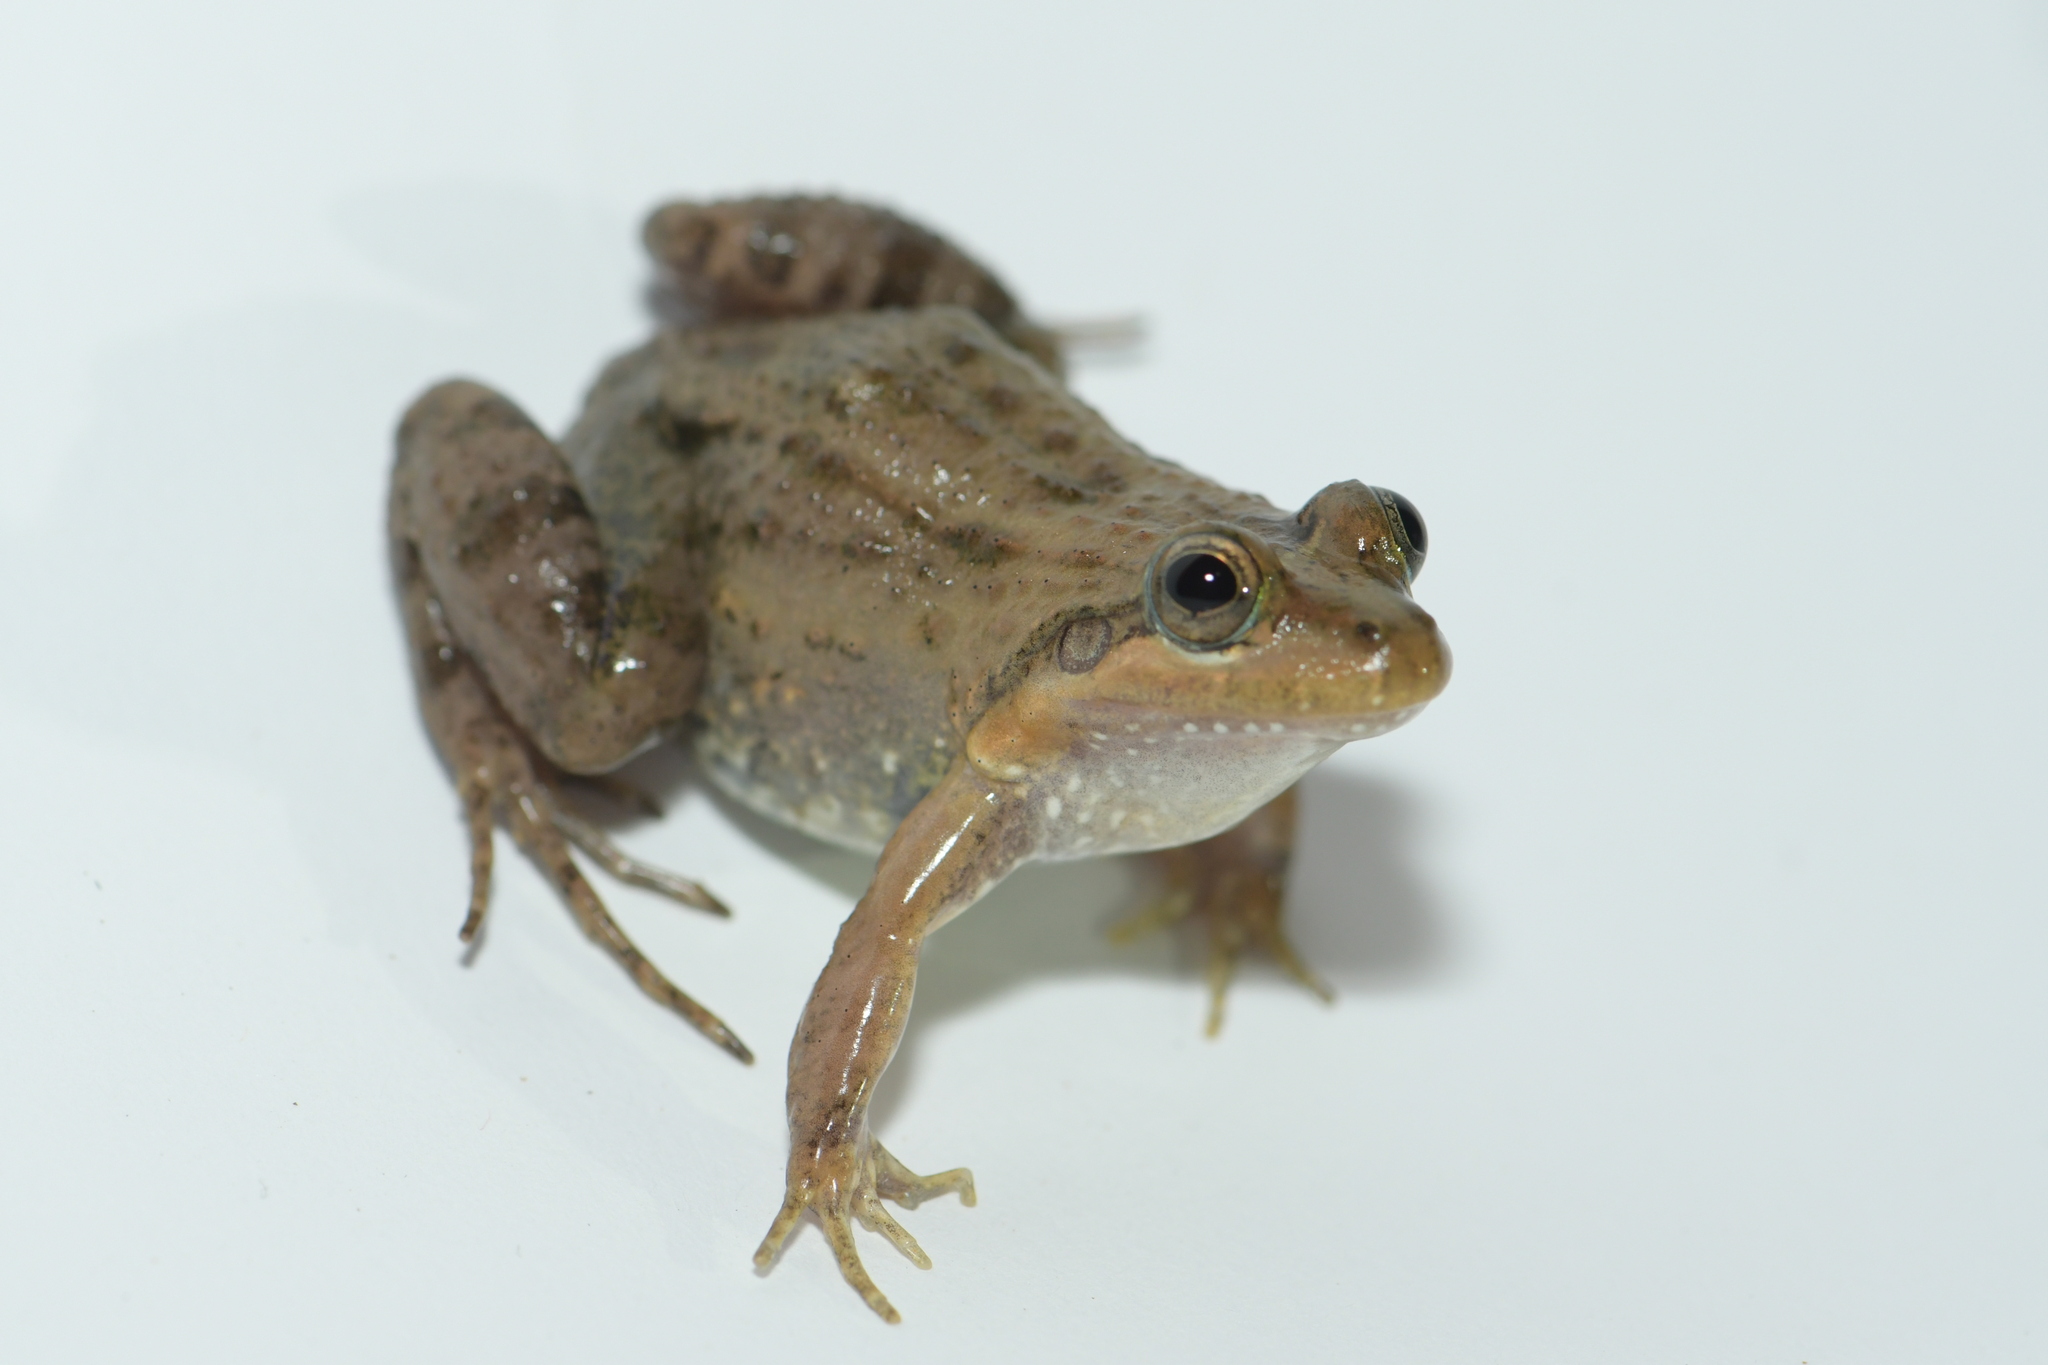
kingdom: Animalia
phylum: Chordata
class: Amphibia
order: Anura
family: Leptodactylidae
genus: Leptodactylus
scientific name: Leptodactylus melanonotus
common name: Fringe-toed foamfrog
